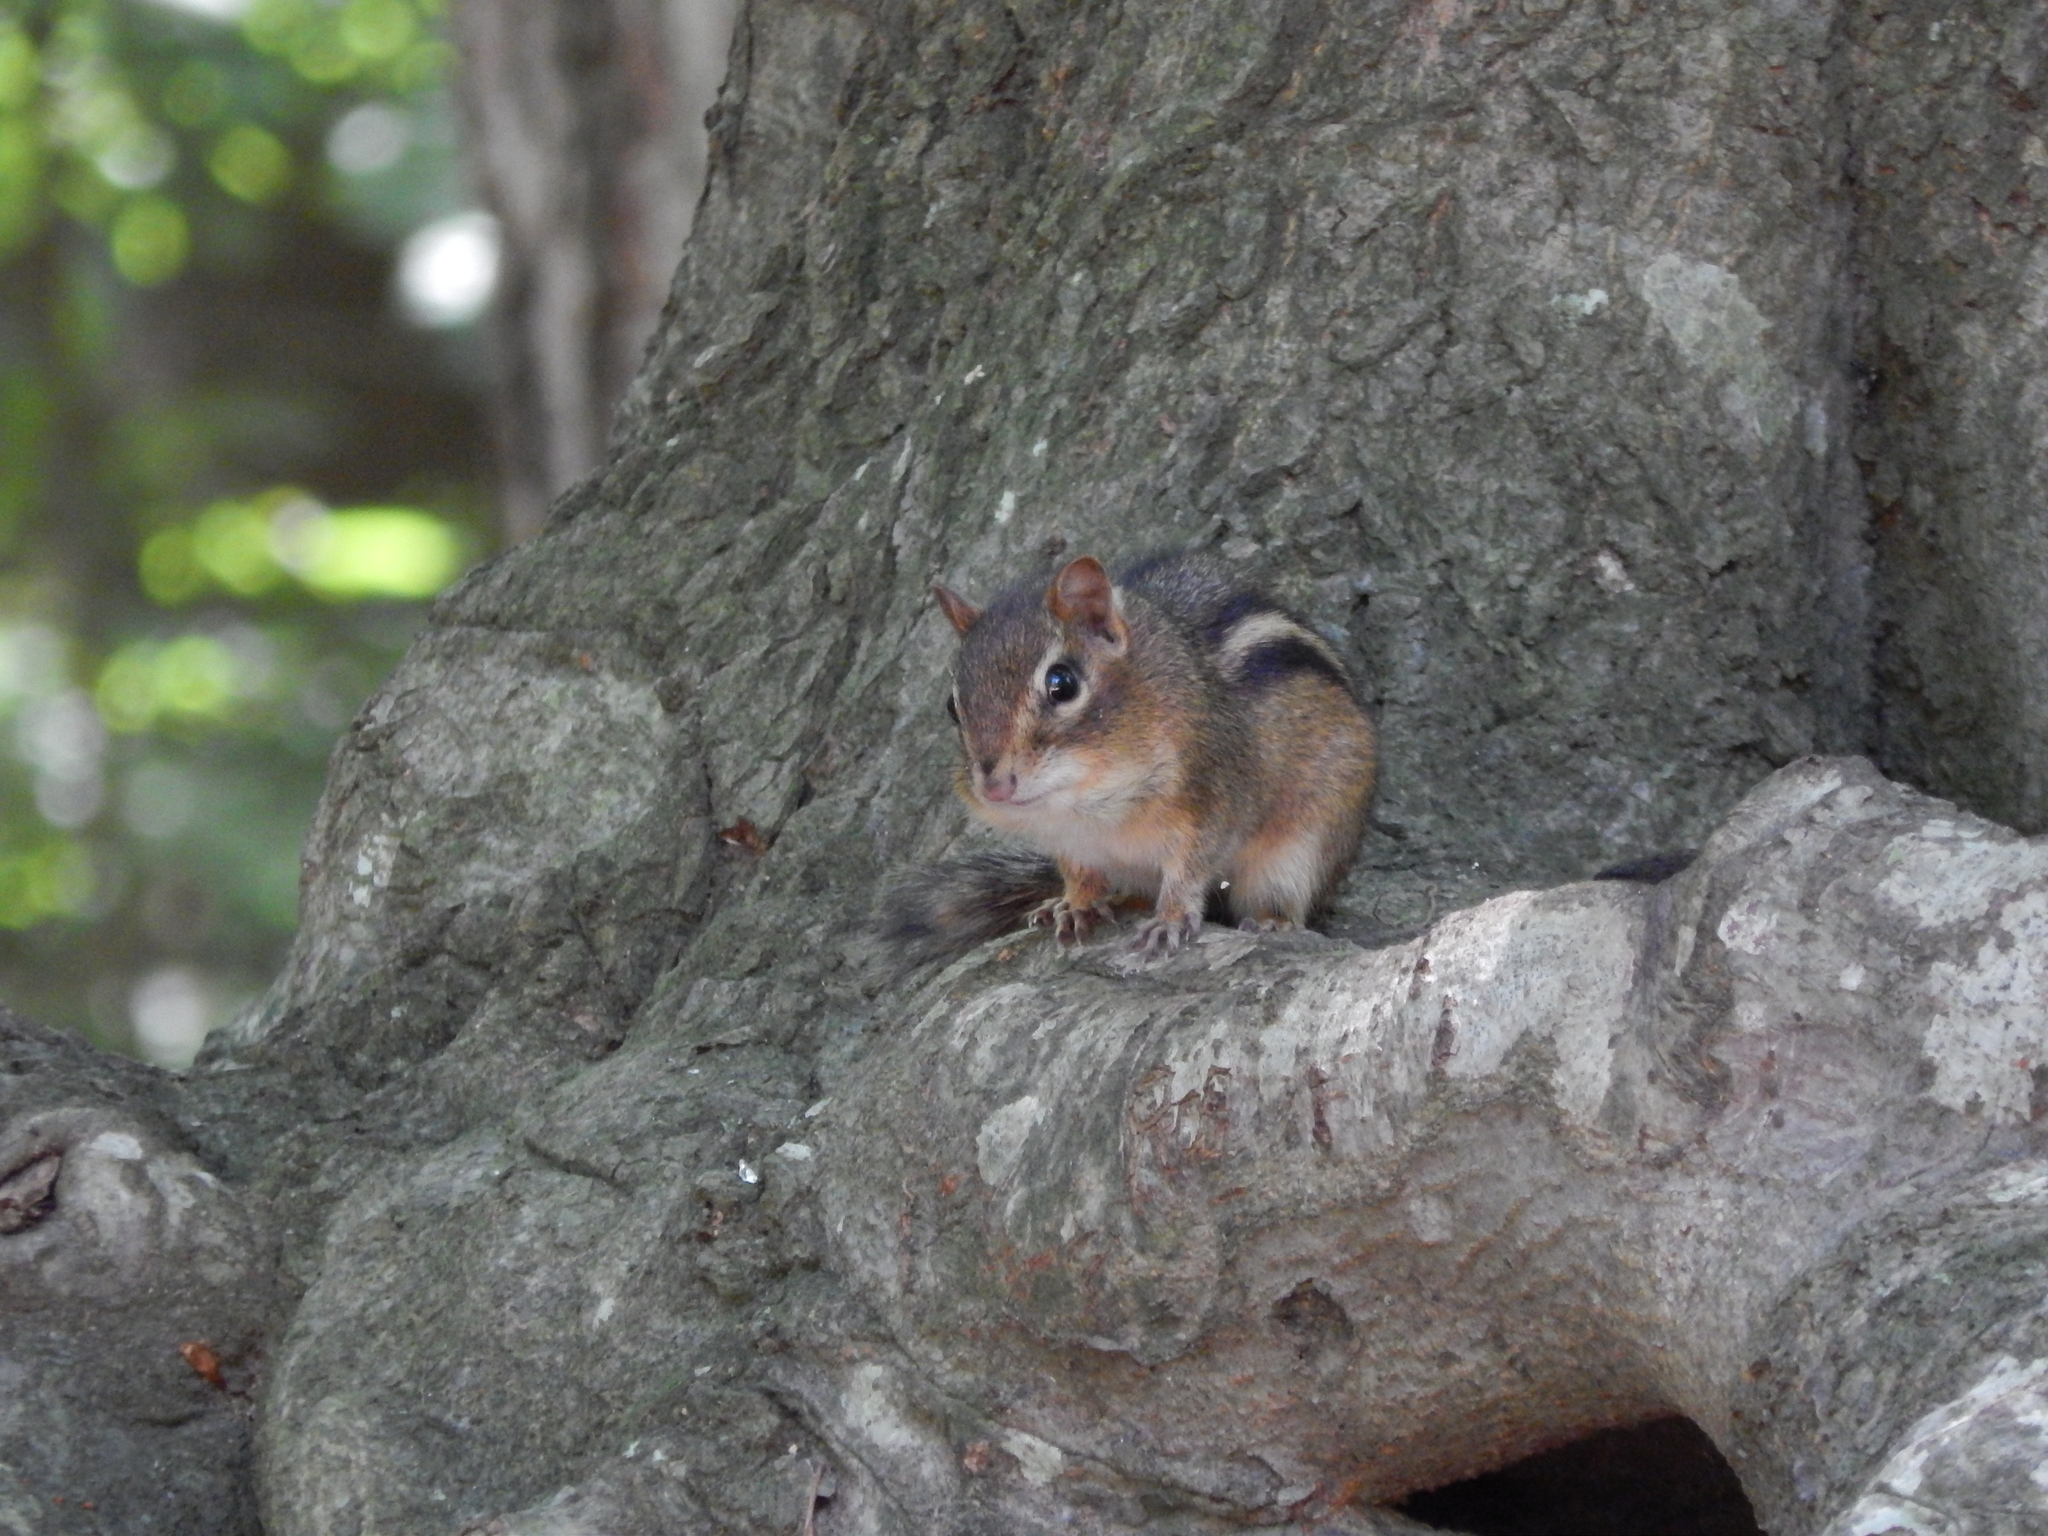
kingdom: Animalia
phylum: Chordata
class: Mammalia
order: Rodentia
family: Sciuridae
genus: Tamias
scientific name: Tamias striatus
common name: Eastern chipmunk
